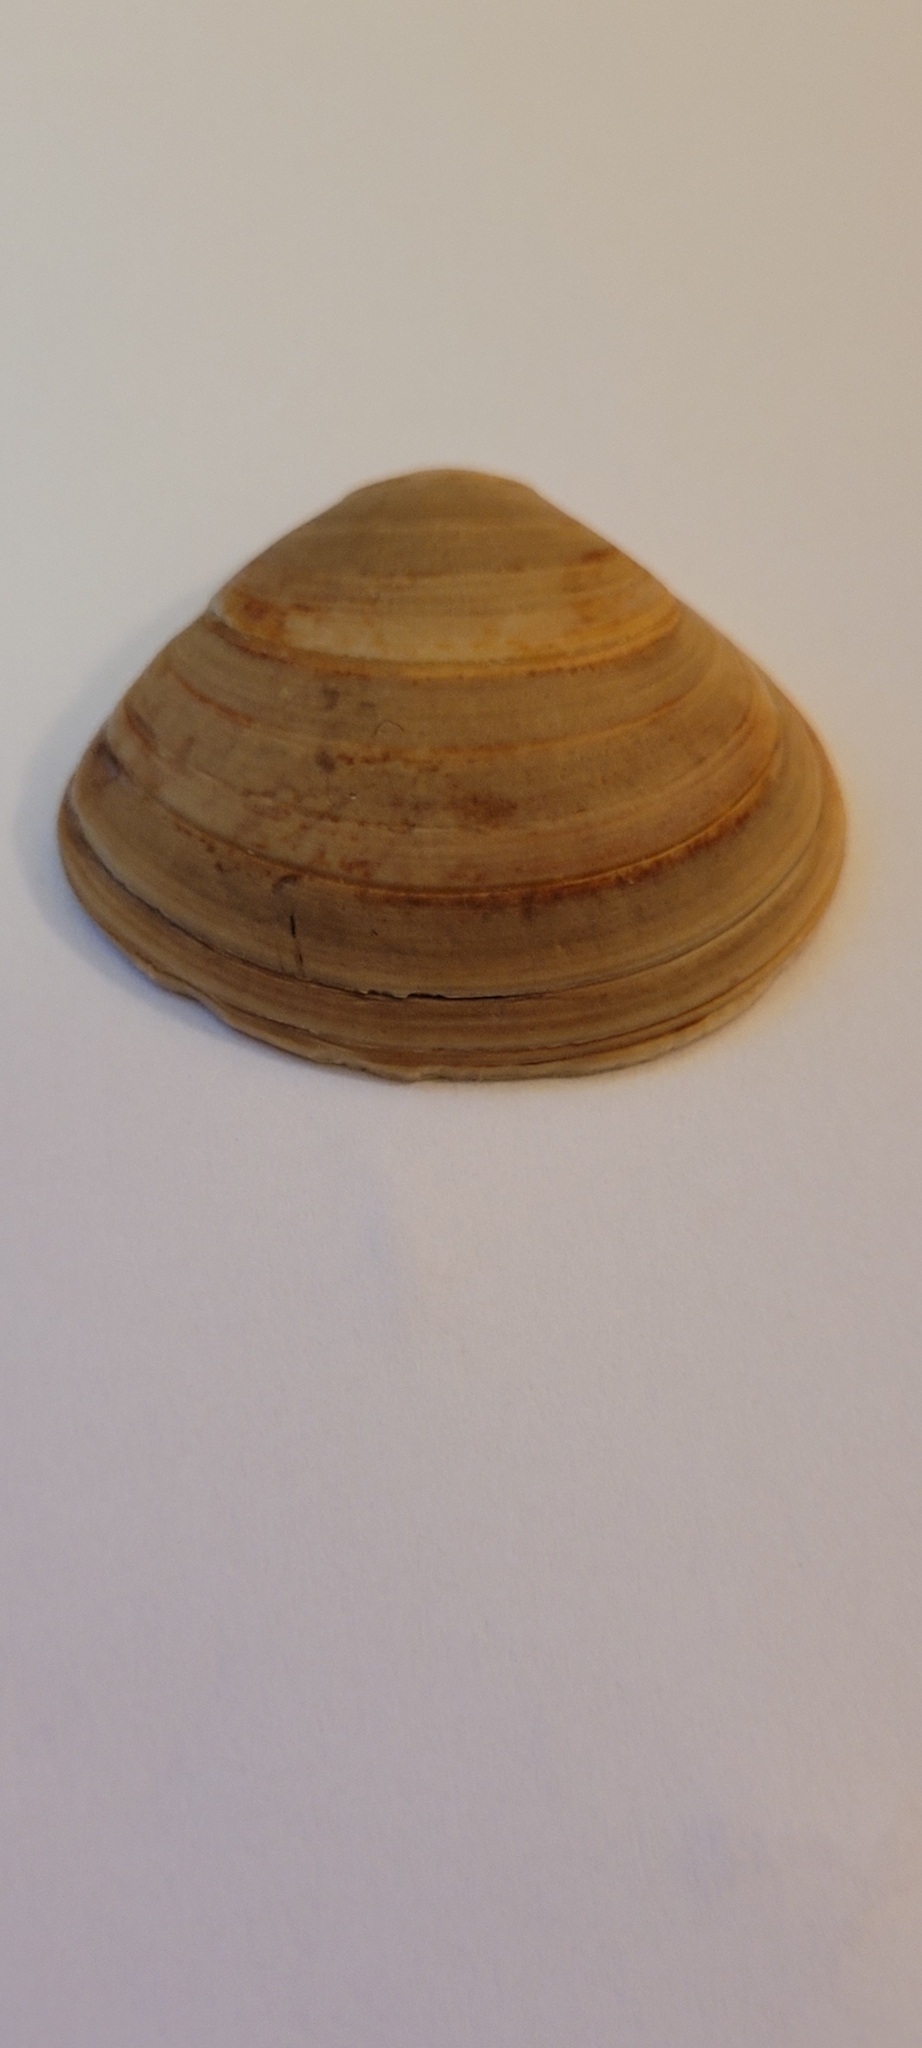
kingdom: Animalia
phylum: Mollusca
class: Bivalvia
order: Venerida
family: Mactridae
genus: Spisula
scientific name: Spisula solida
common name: Thick trough shell
